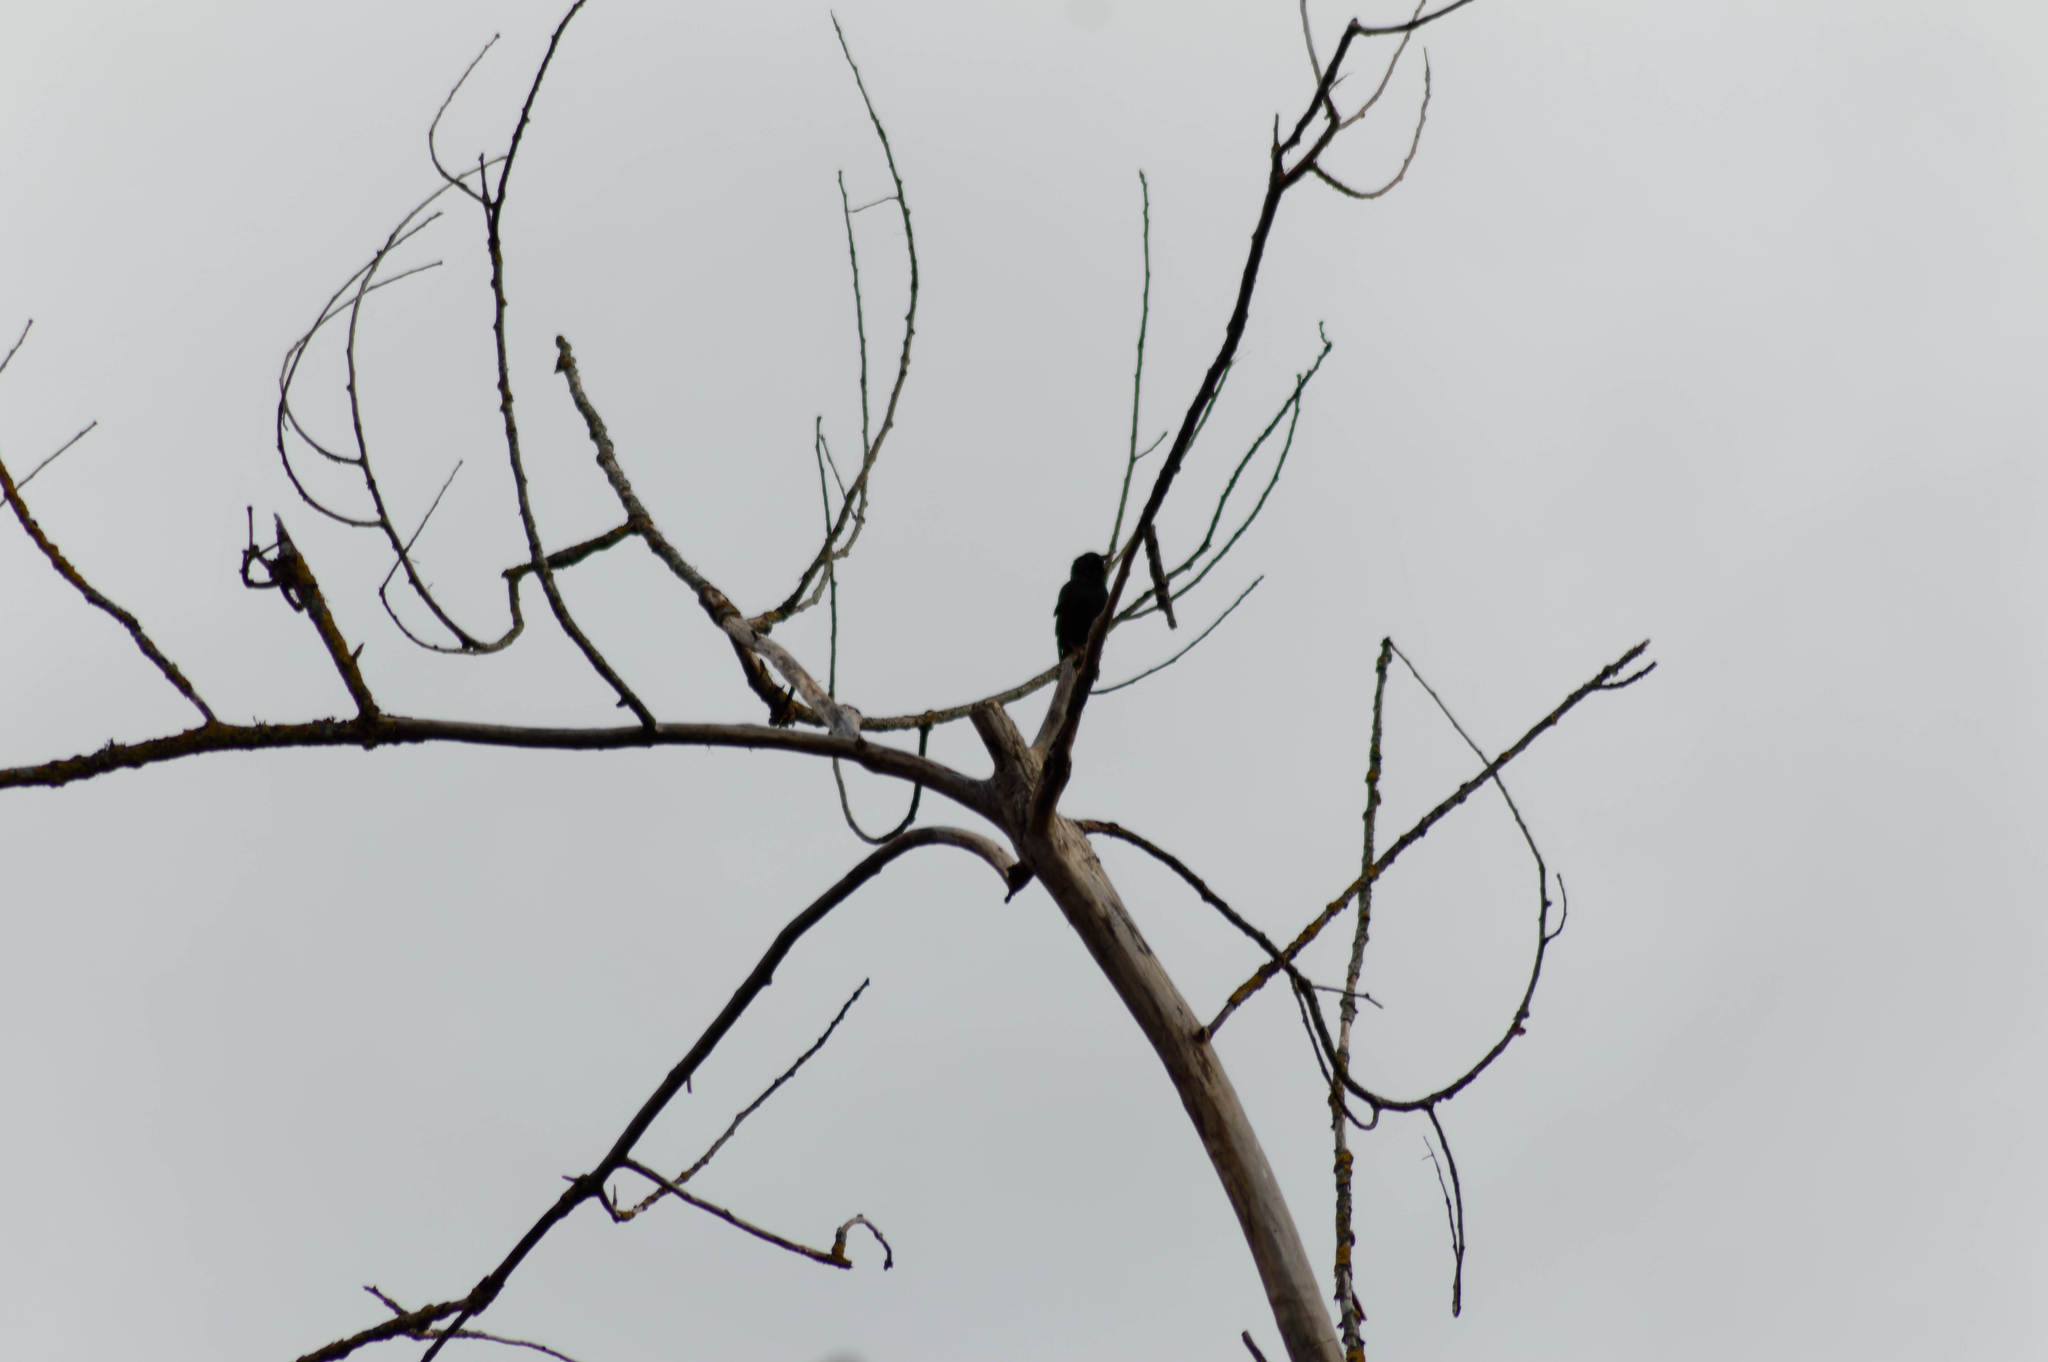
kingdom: Animalia
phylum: Chordata
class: Aves
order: Passeriformes
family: Sturnidae
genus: Sturnus
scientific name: Sturnus vulgaris
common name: Common starling
